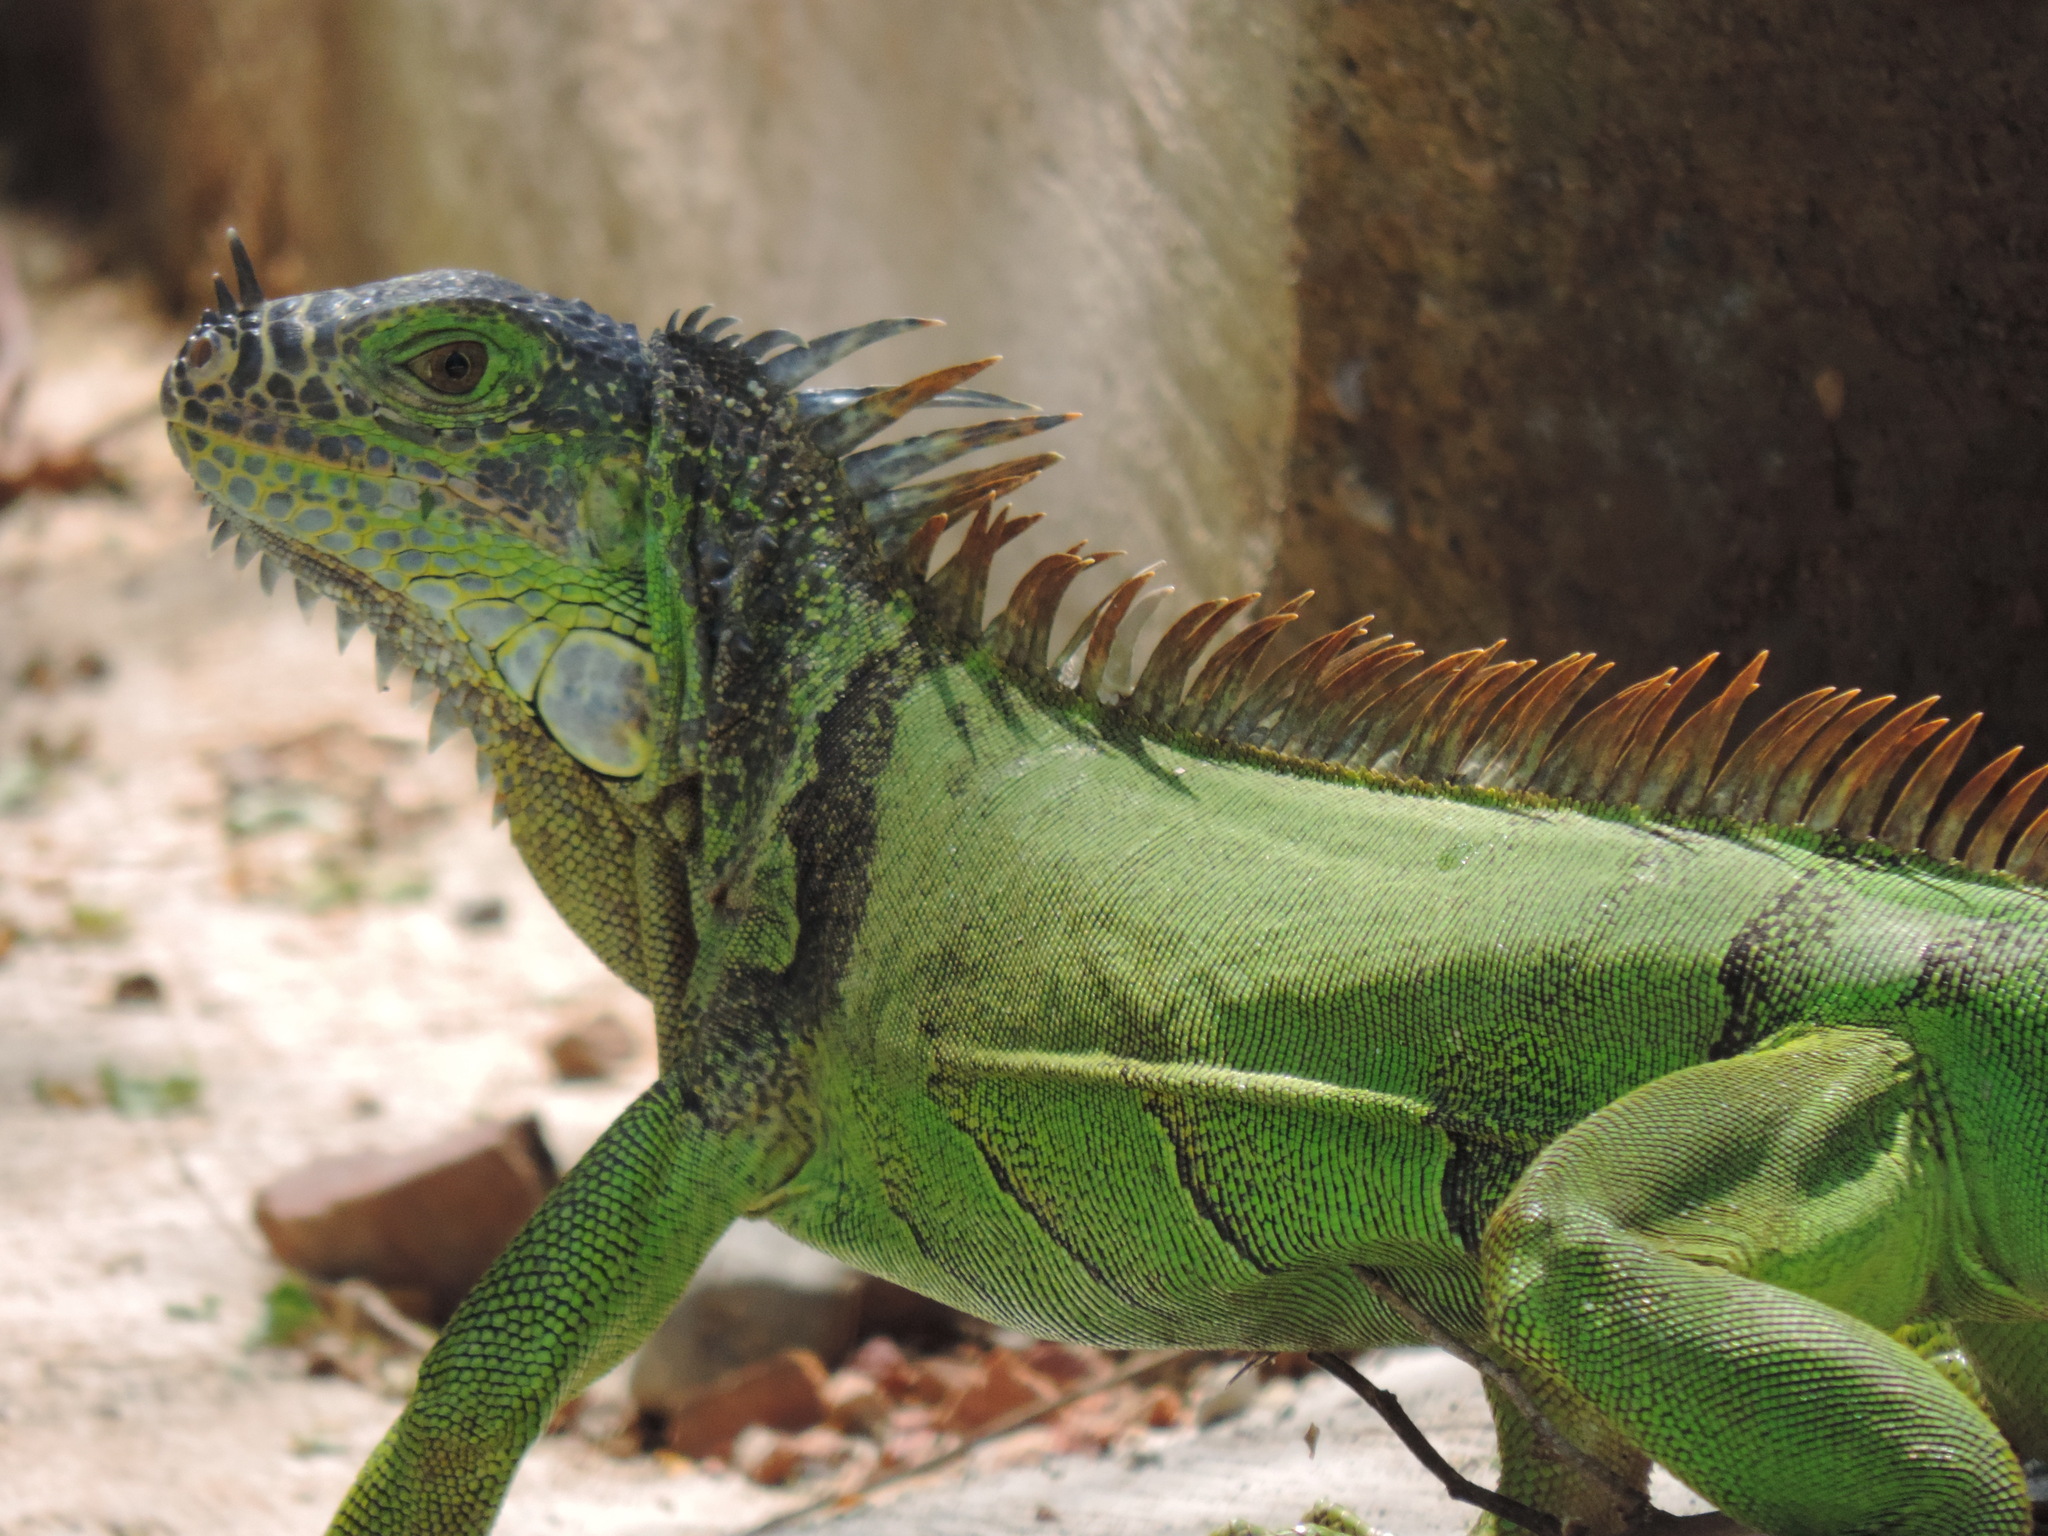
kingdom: Animalia
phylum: Chordata
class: Squamata
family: Iguanidae
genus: Iguana
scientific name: Iguana iguana
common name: Green iguana
